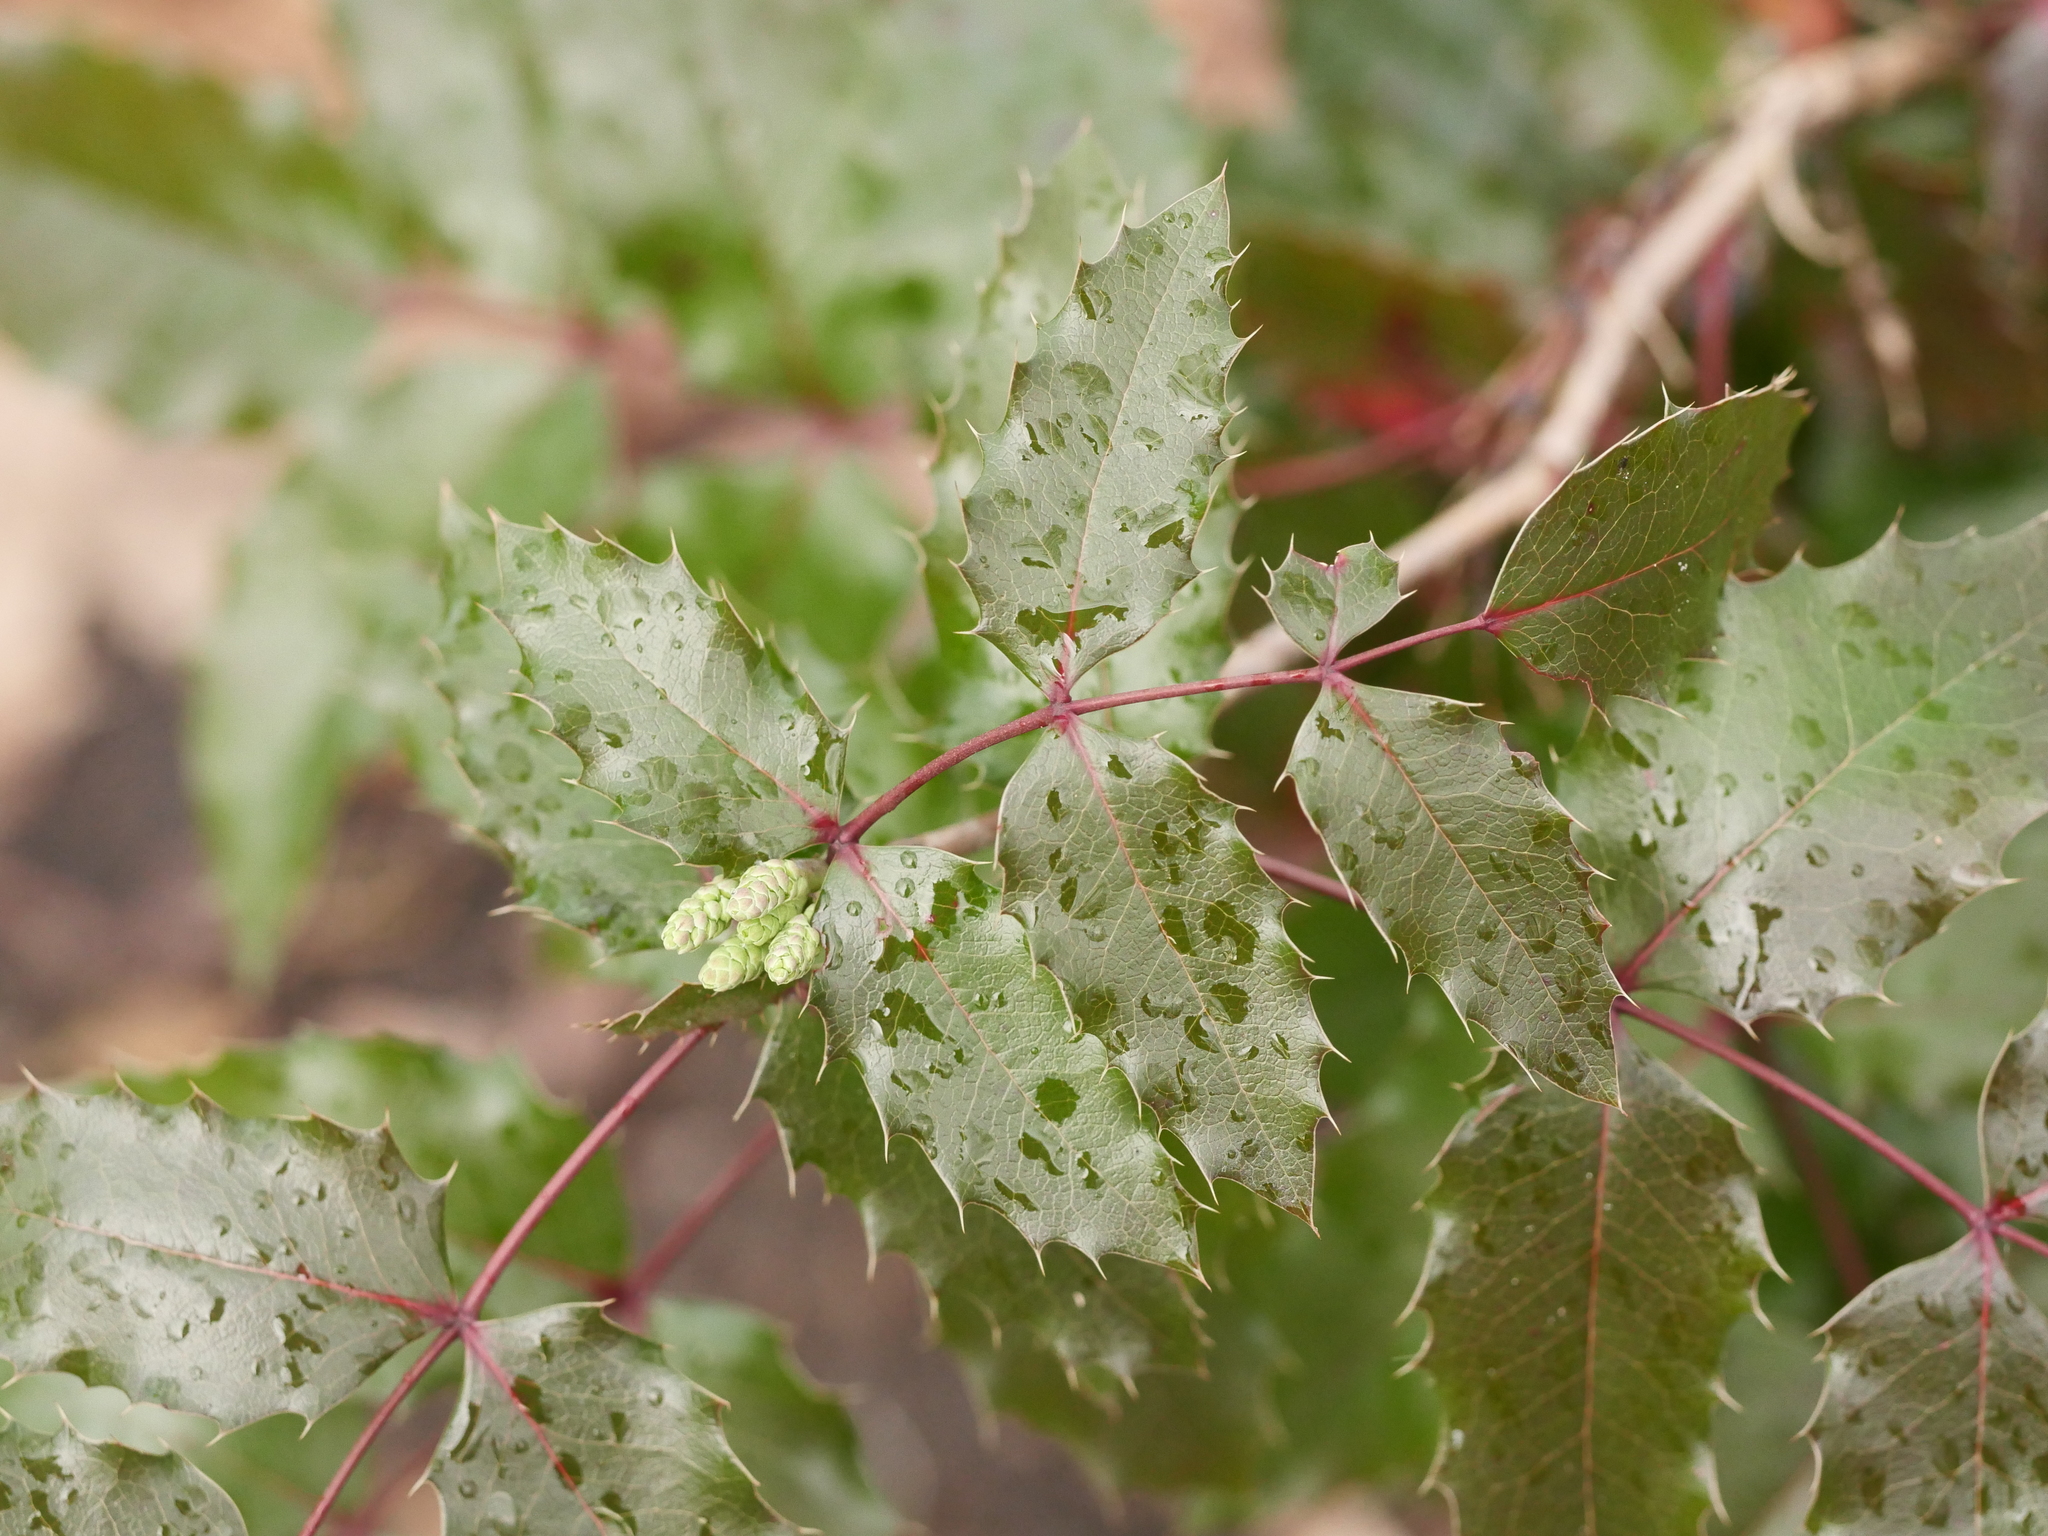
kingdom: Plantae
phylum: Tracheophyta
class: Magnoliopsida
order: Ranunculales
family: Berberidaceae
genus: Mahonia
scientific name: Mahonia aquifolium
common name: Oregon-grape
